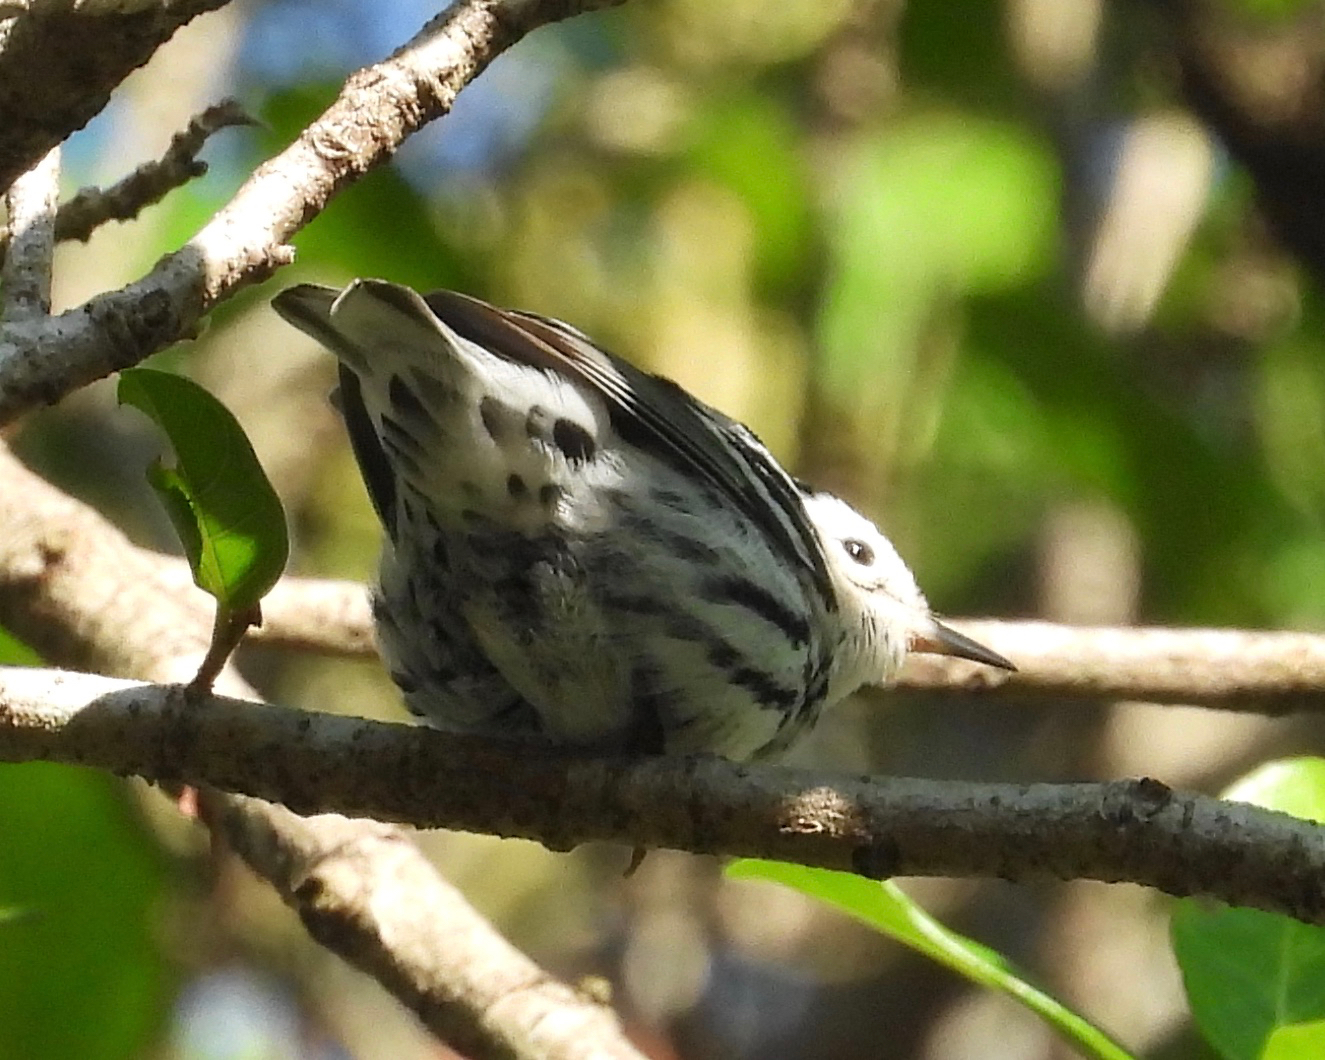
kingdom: Animalia
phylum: Chordata
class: Aves
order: Passeriformes
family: Parulidae
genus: Mniotilta
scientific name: Mniotilta varia
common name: Black-and-white warbler
